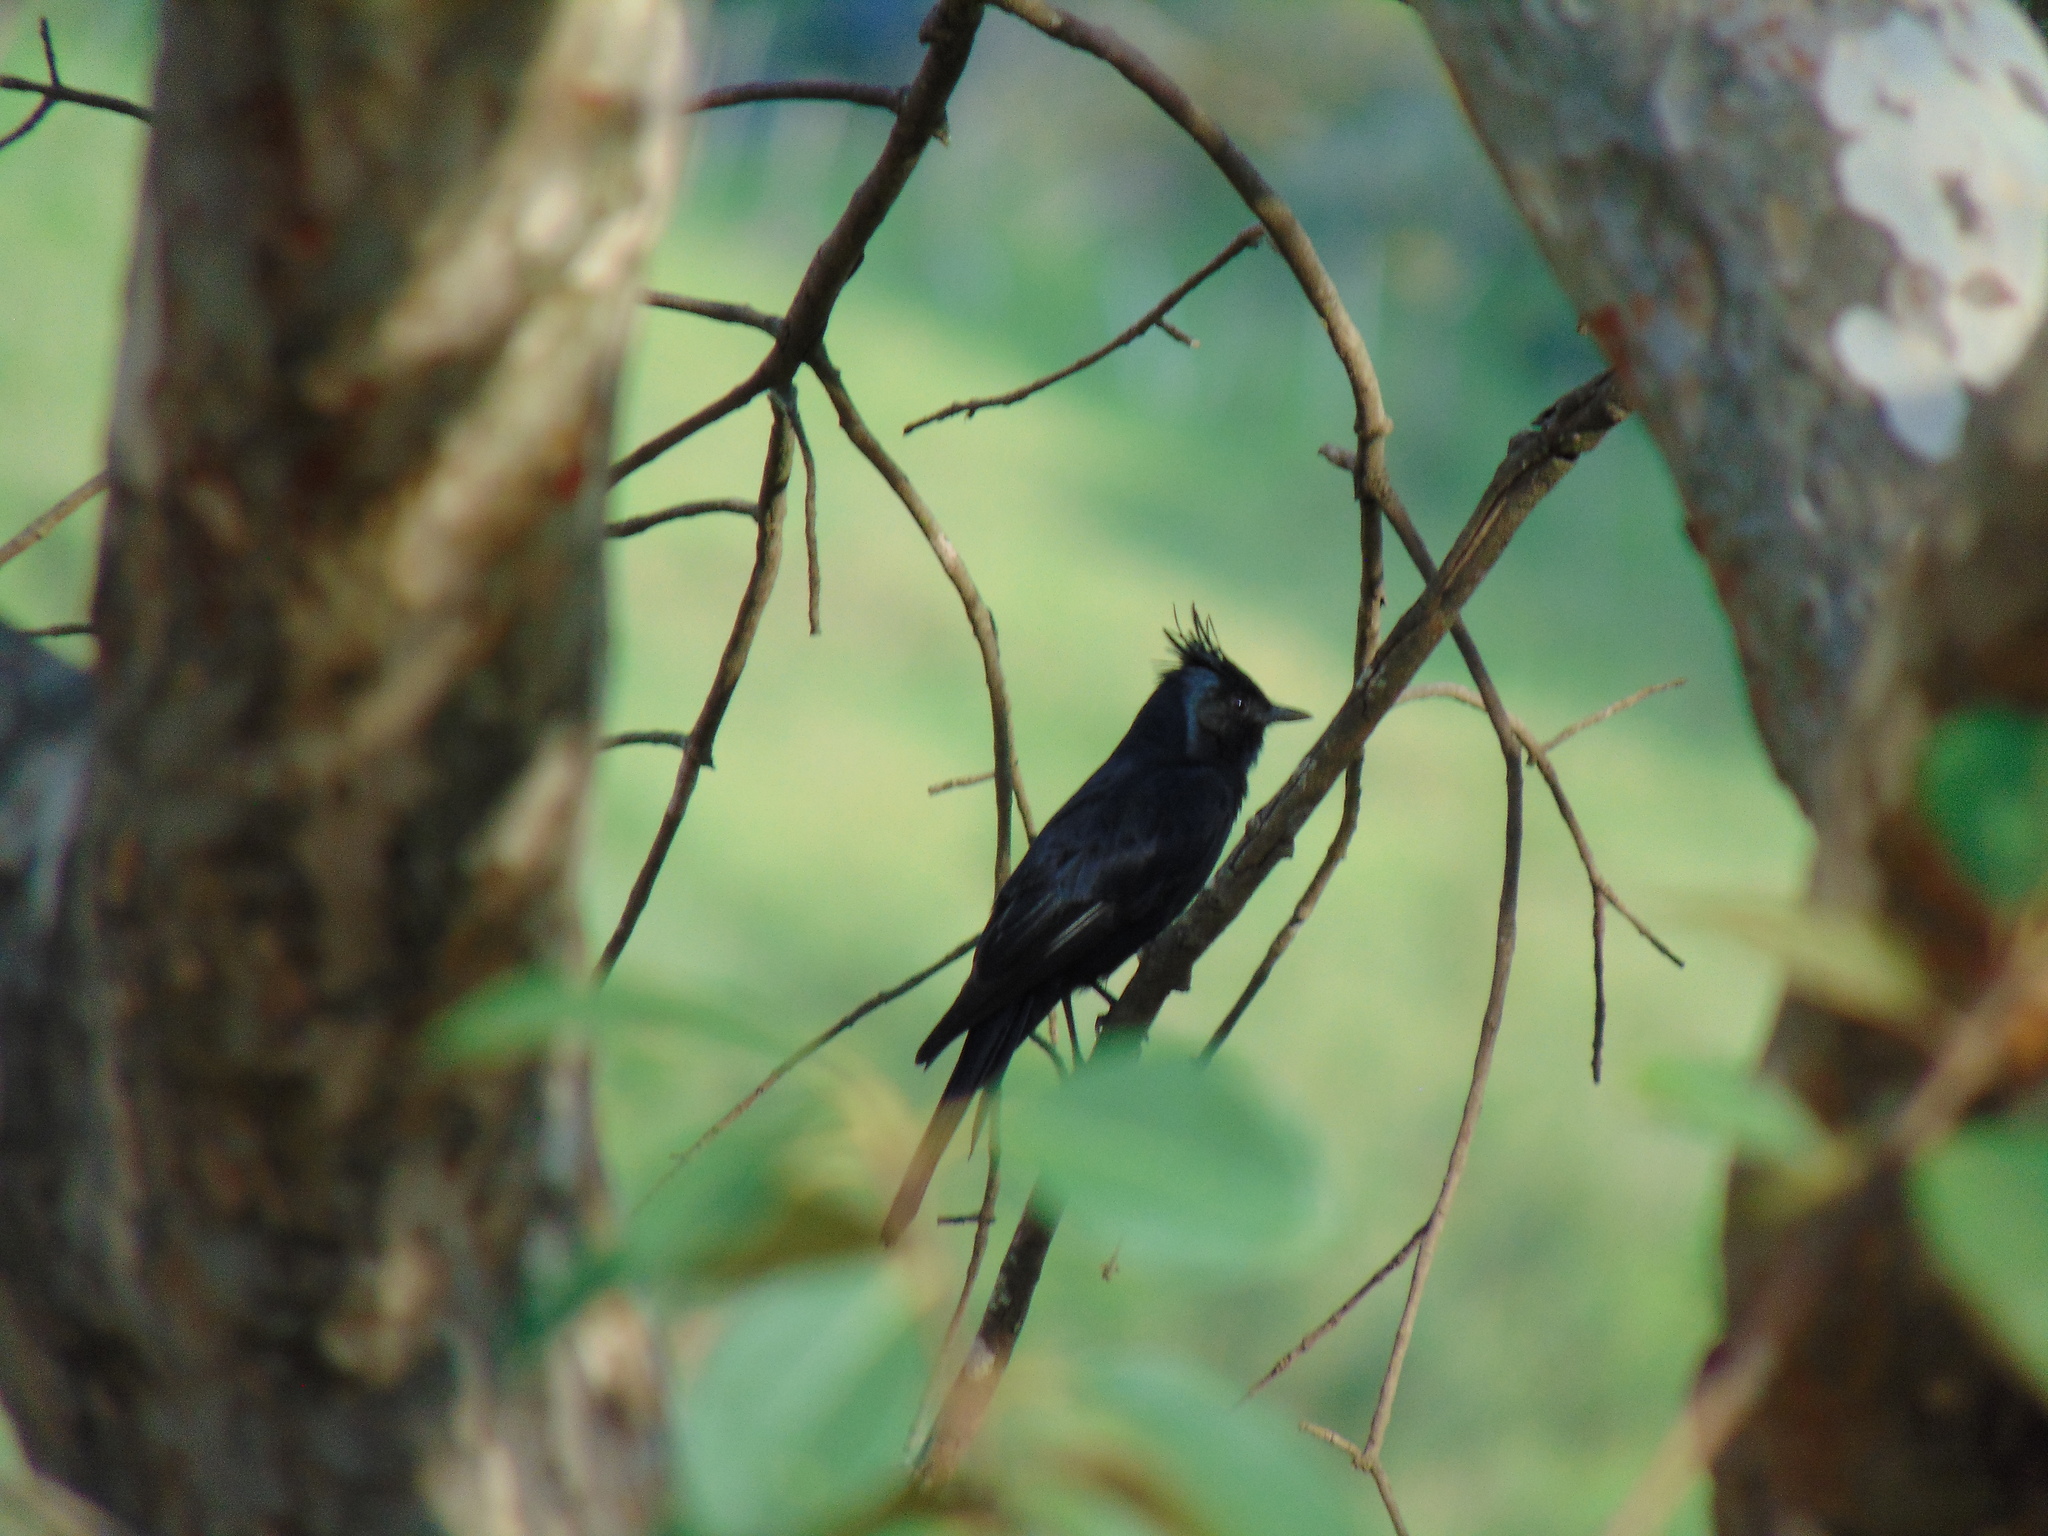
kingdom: Animalia
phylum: Chordata
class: Aves
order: Passeriformes
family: Tyrannidae
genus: Knipolegus
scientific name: Knipolegus lophotes
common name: Crested black tyrant
